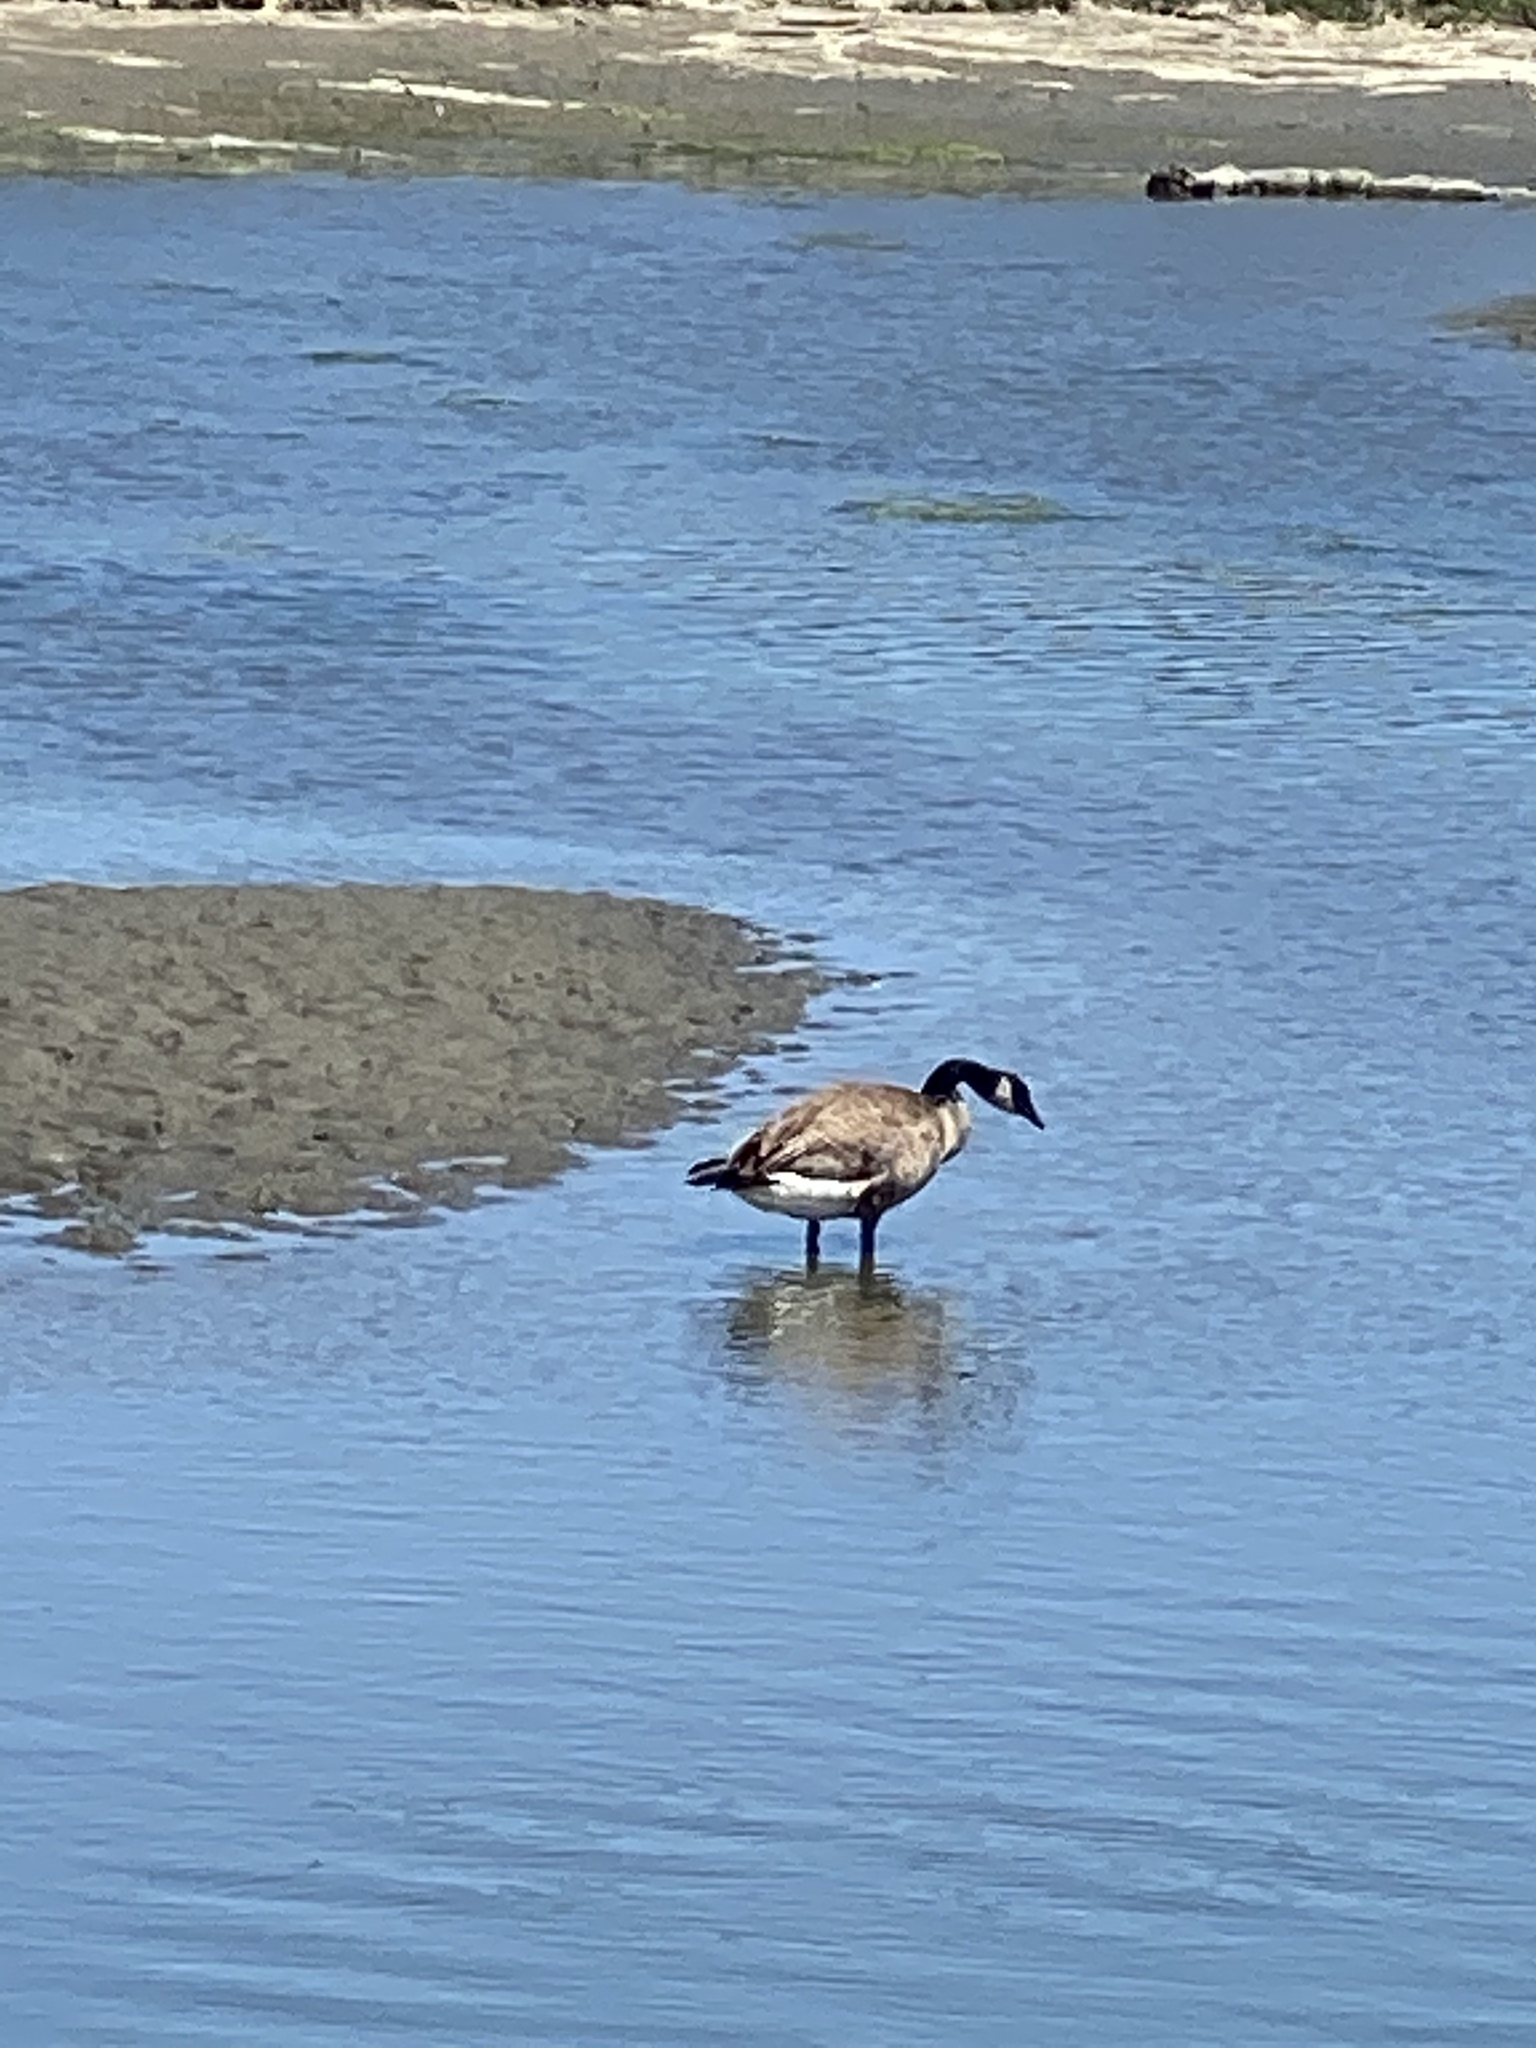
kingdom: Animalia
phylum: Chordata
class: Aves
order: Anseriformes
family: Anatidae
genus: Branta
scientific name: Branta canadensis
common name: Canada goose
